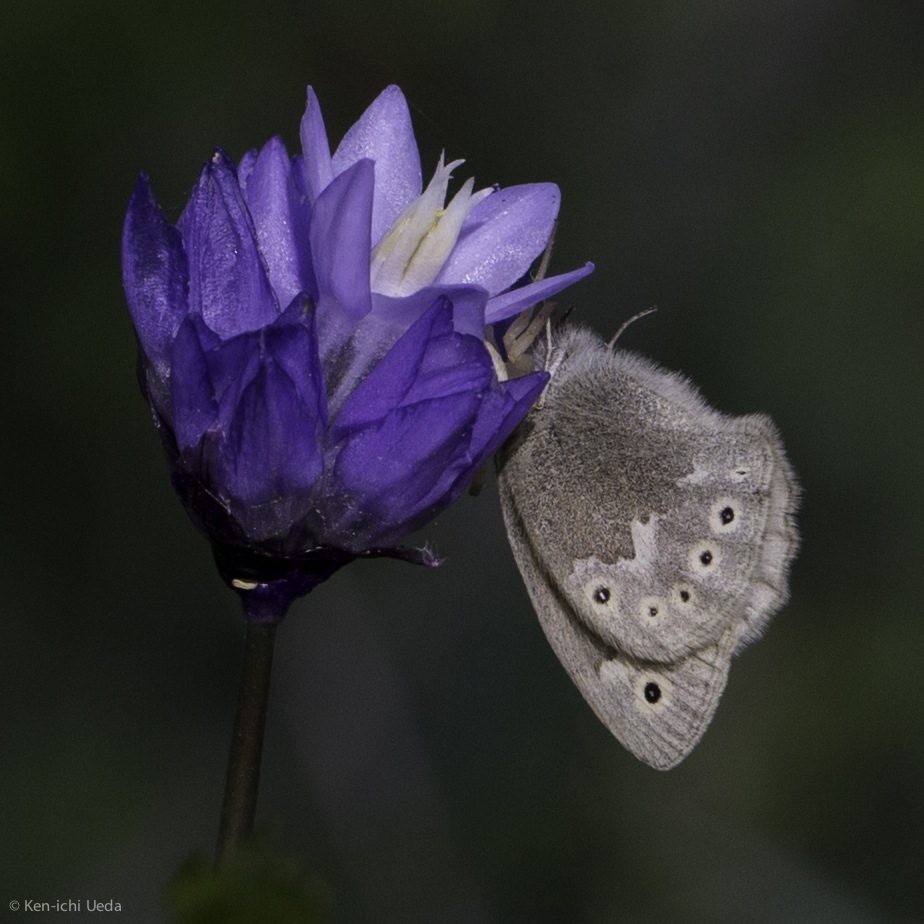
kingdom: Animalia
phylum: Arthropoda
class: Insecta
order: Lepidoptera
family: Nymphalidae
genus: Coenonympha
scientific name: Coenonympha california
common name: Common ringlet
